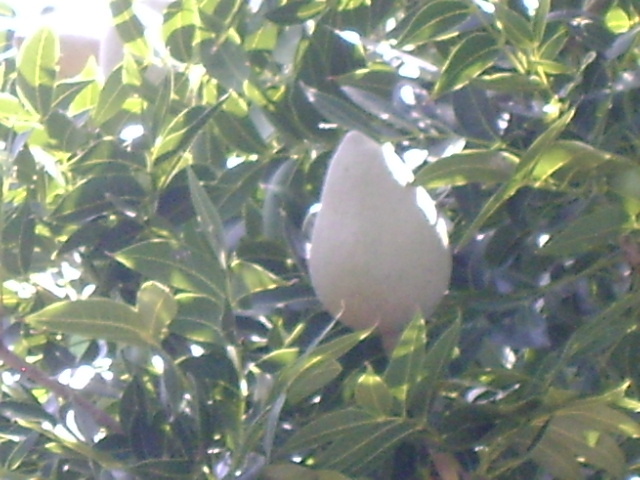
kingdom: Plantae
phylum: Tracheophyta
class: Magnoliopsida
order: Sapindales
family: Meliaceae
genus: Swietenia
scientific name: Swietenia humilis
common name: Pacific coast mahogany
